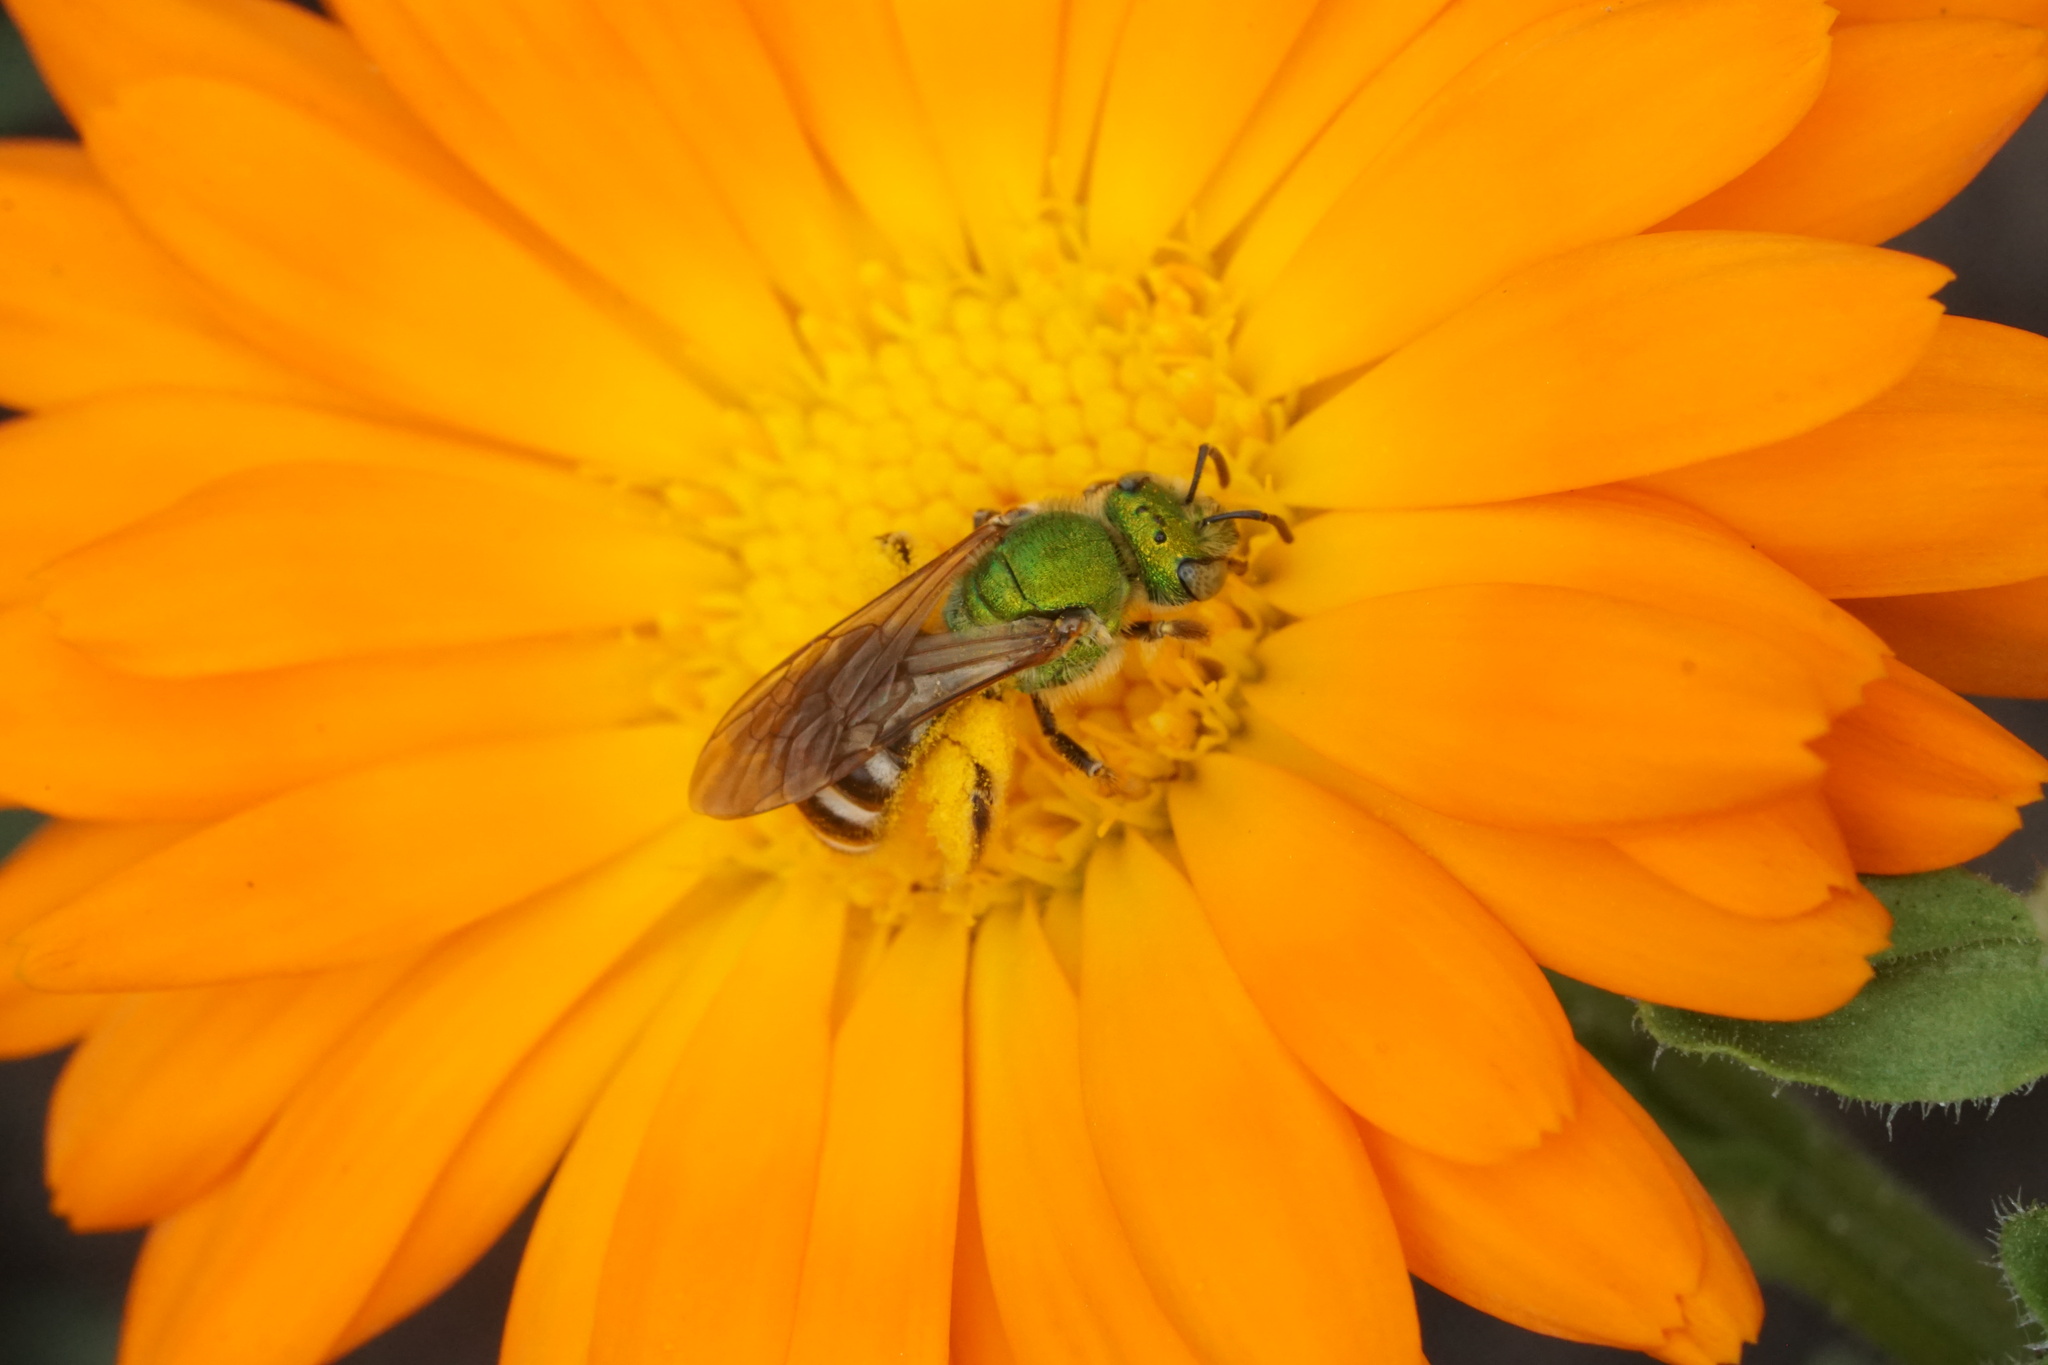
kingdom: Animalia
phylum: Arthropoda
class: Insecta
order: Hymenoptera
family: Halictidae
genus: Agapostemon
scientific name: Agapostemon virescens
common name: Bicolored striped sweat bee
